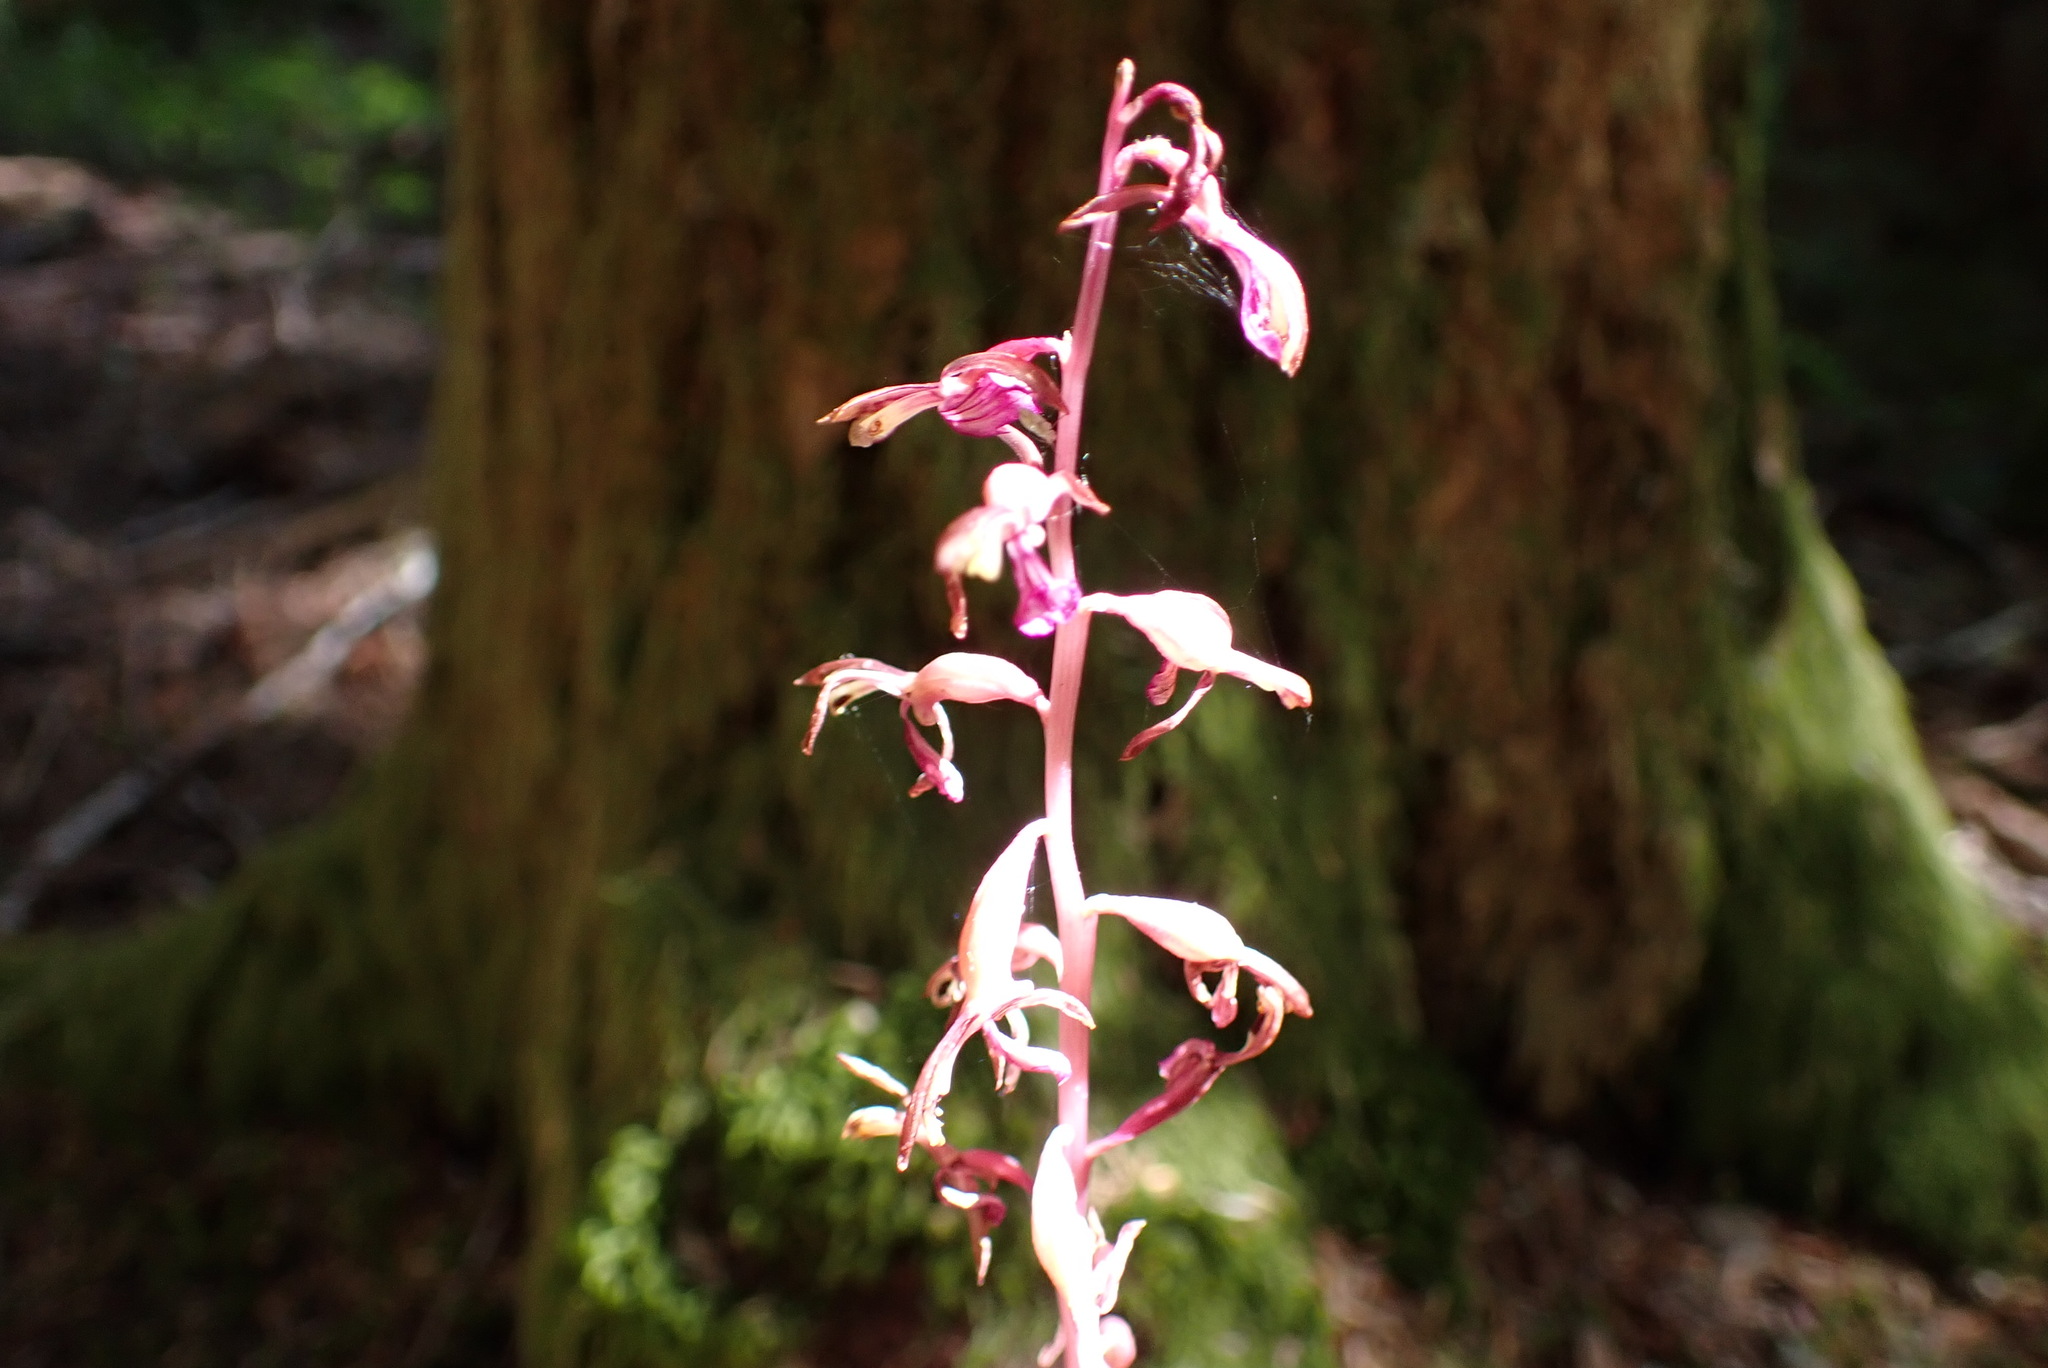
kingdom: Plantae
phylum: Tracheophyta
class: Liliopsida
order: Asparagales
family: Orchidaceae
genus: Corallorhiza
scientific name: Corallorhiza mertensiana
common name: Pacific coralroot
